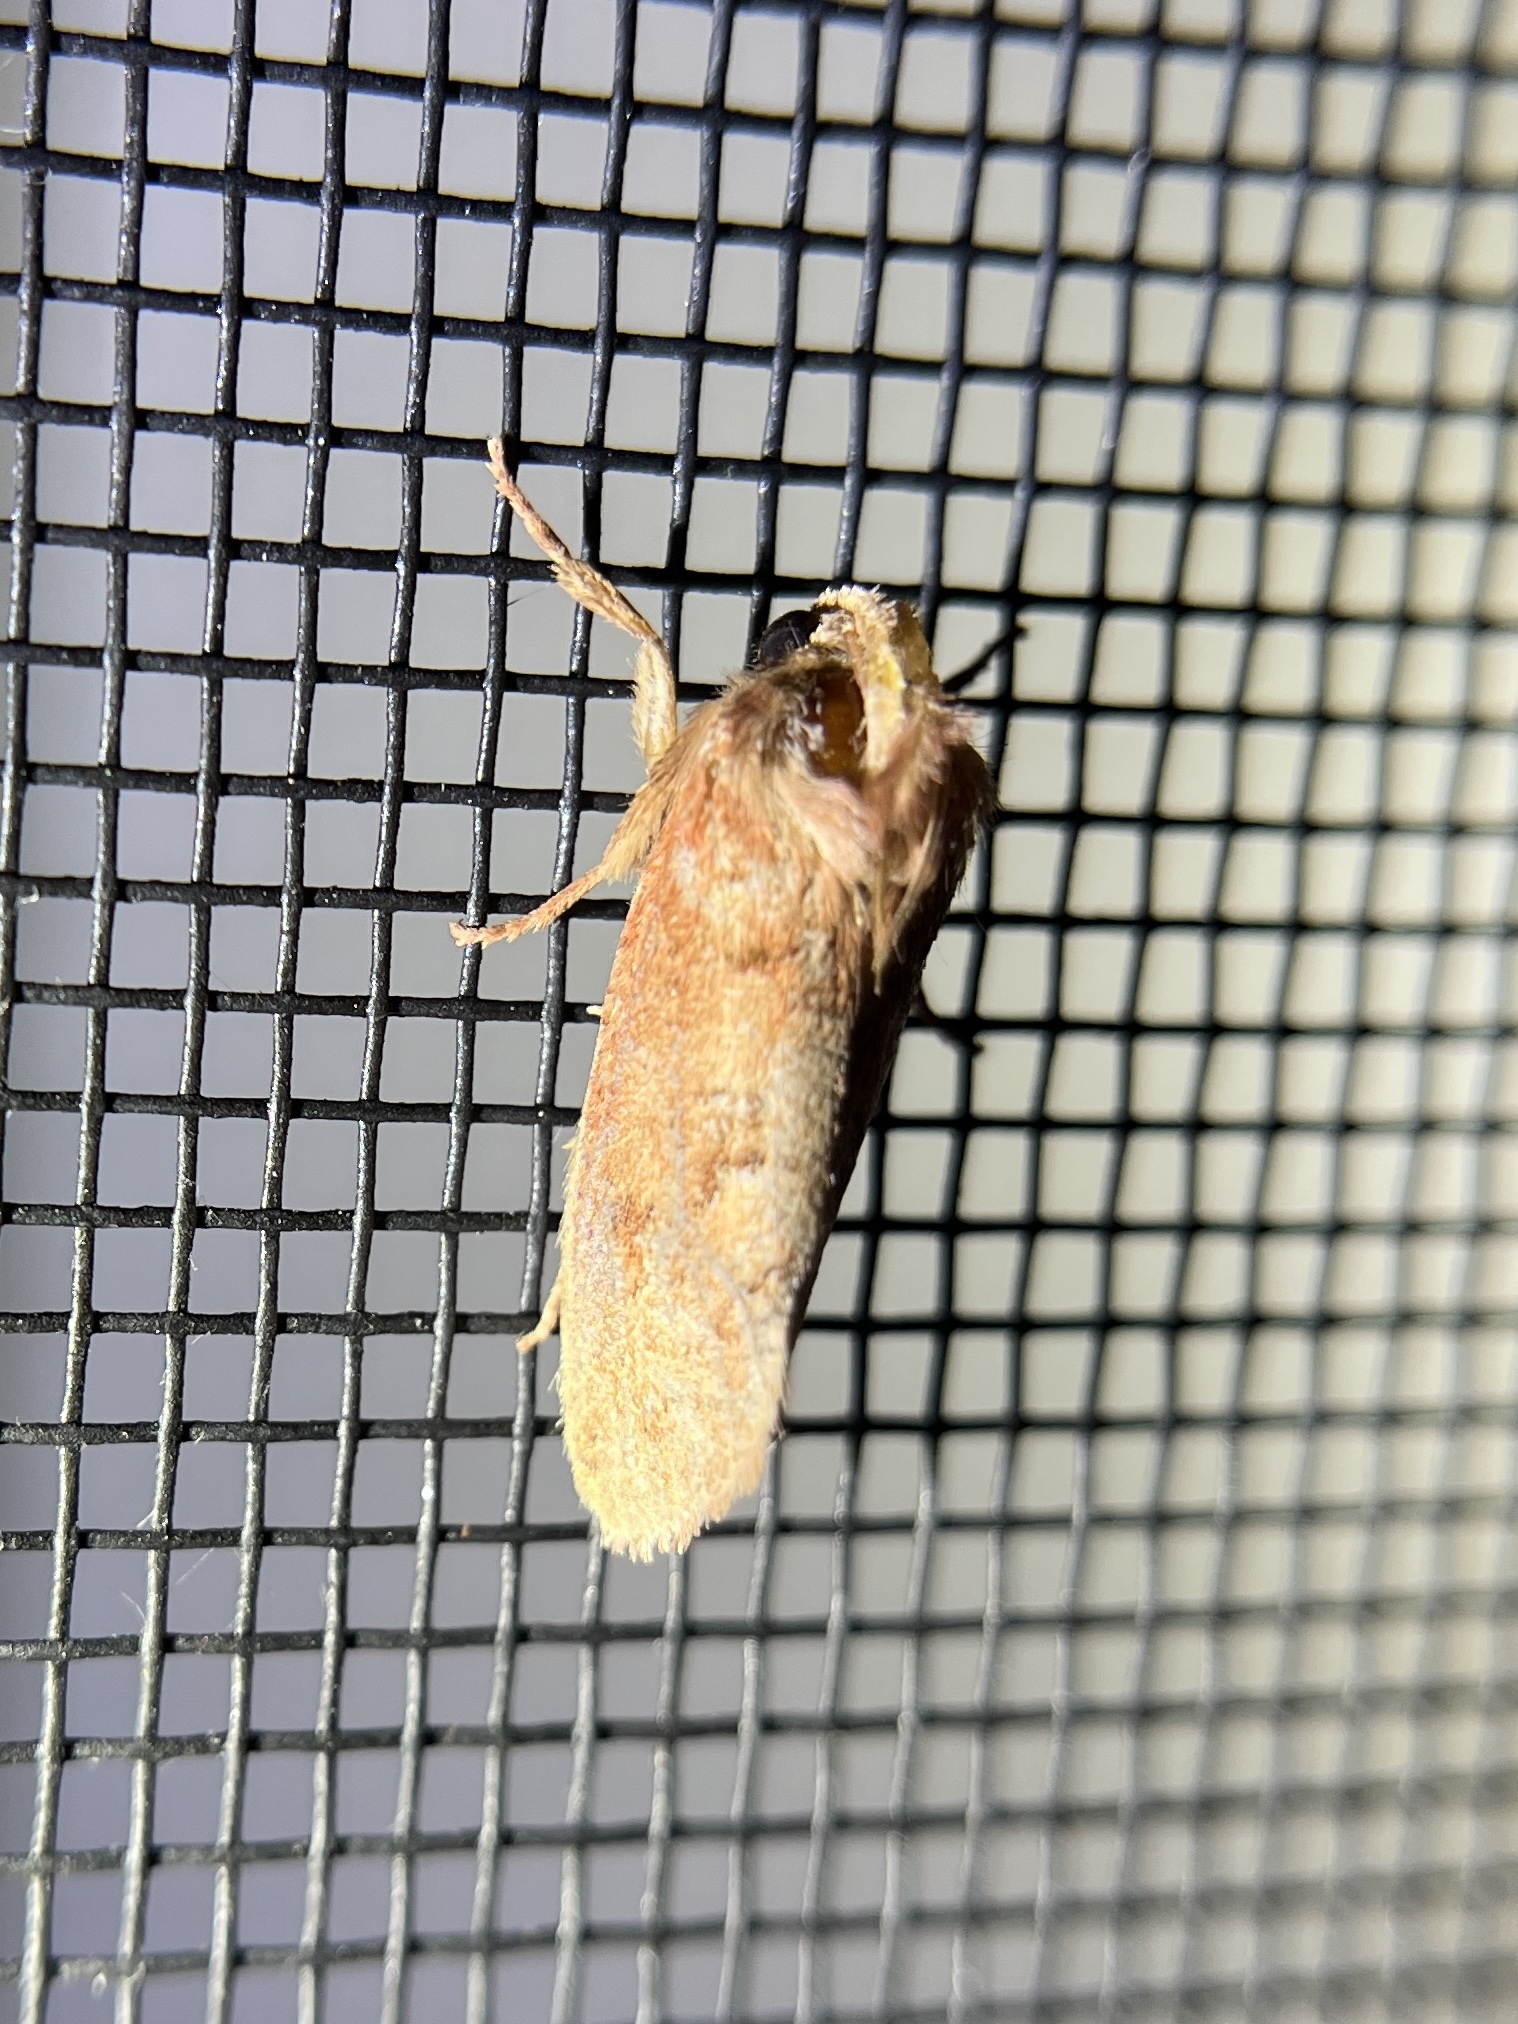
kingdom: Animalia
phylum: Arthropoda
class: Insecta
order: Lepidoptera
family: Tineidae
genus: Acrolophus
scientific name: Acrolophus plumifrontella
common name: Eastern grass tubeworm moth
